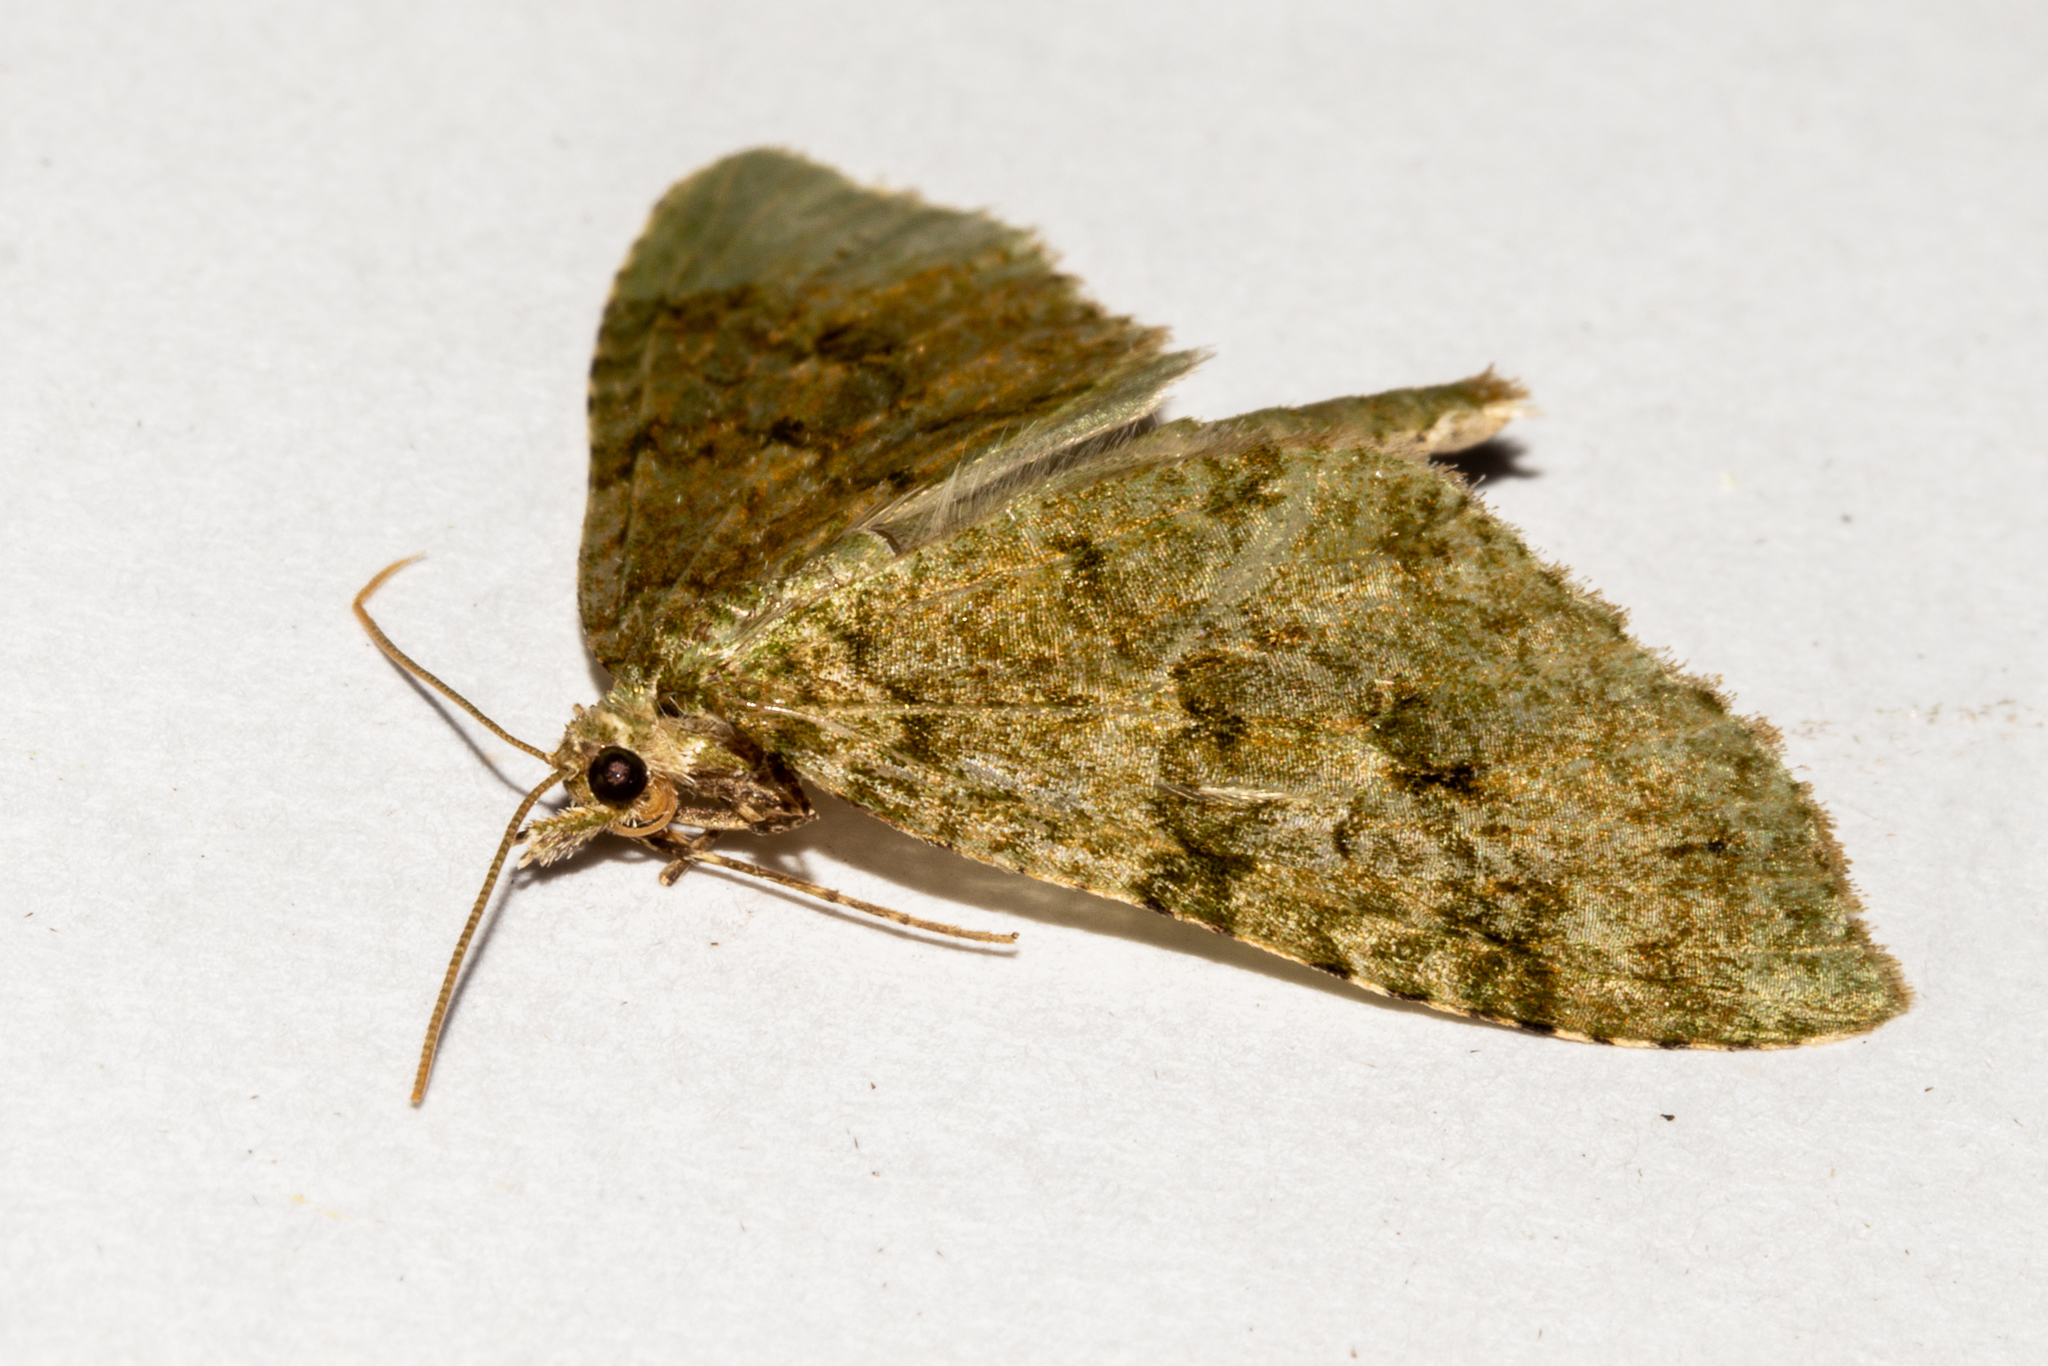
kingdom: Animalia
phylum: Arthropoda
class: Insecta
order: Lepidoptera
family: Geometridae
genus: Tatosoma
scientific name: Tatosoma monoviridisata
